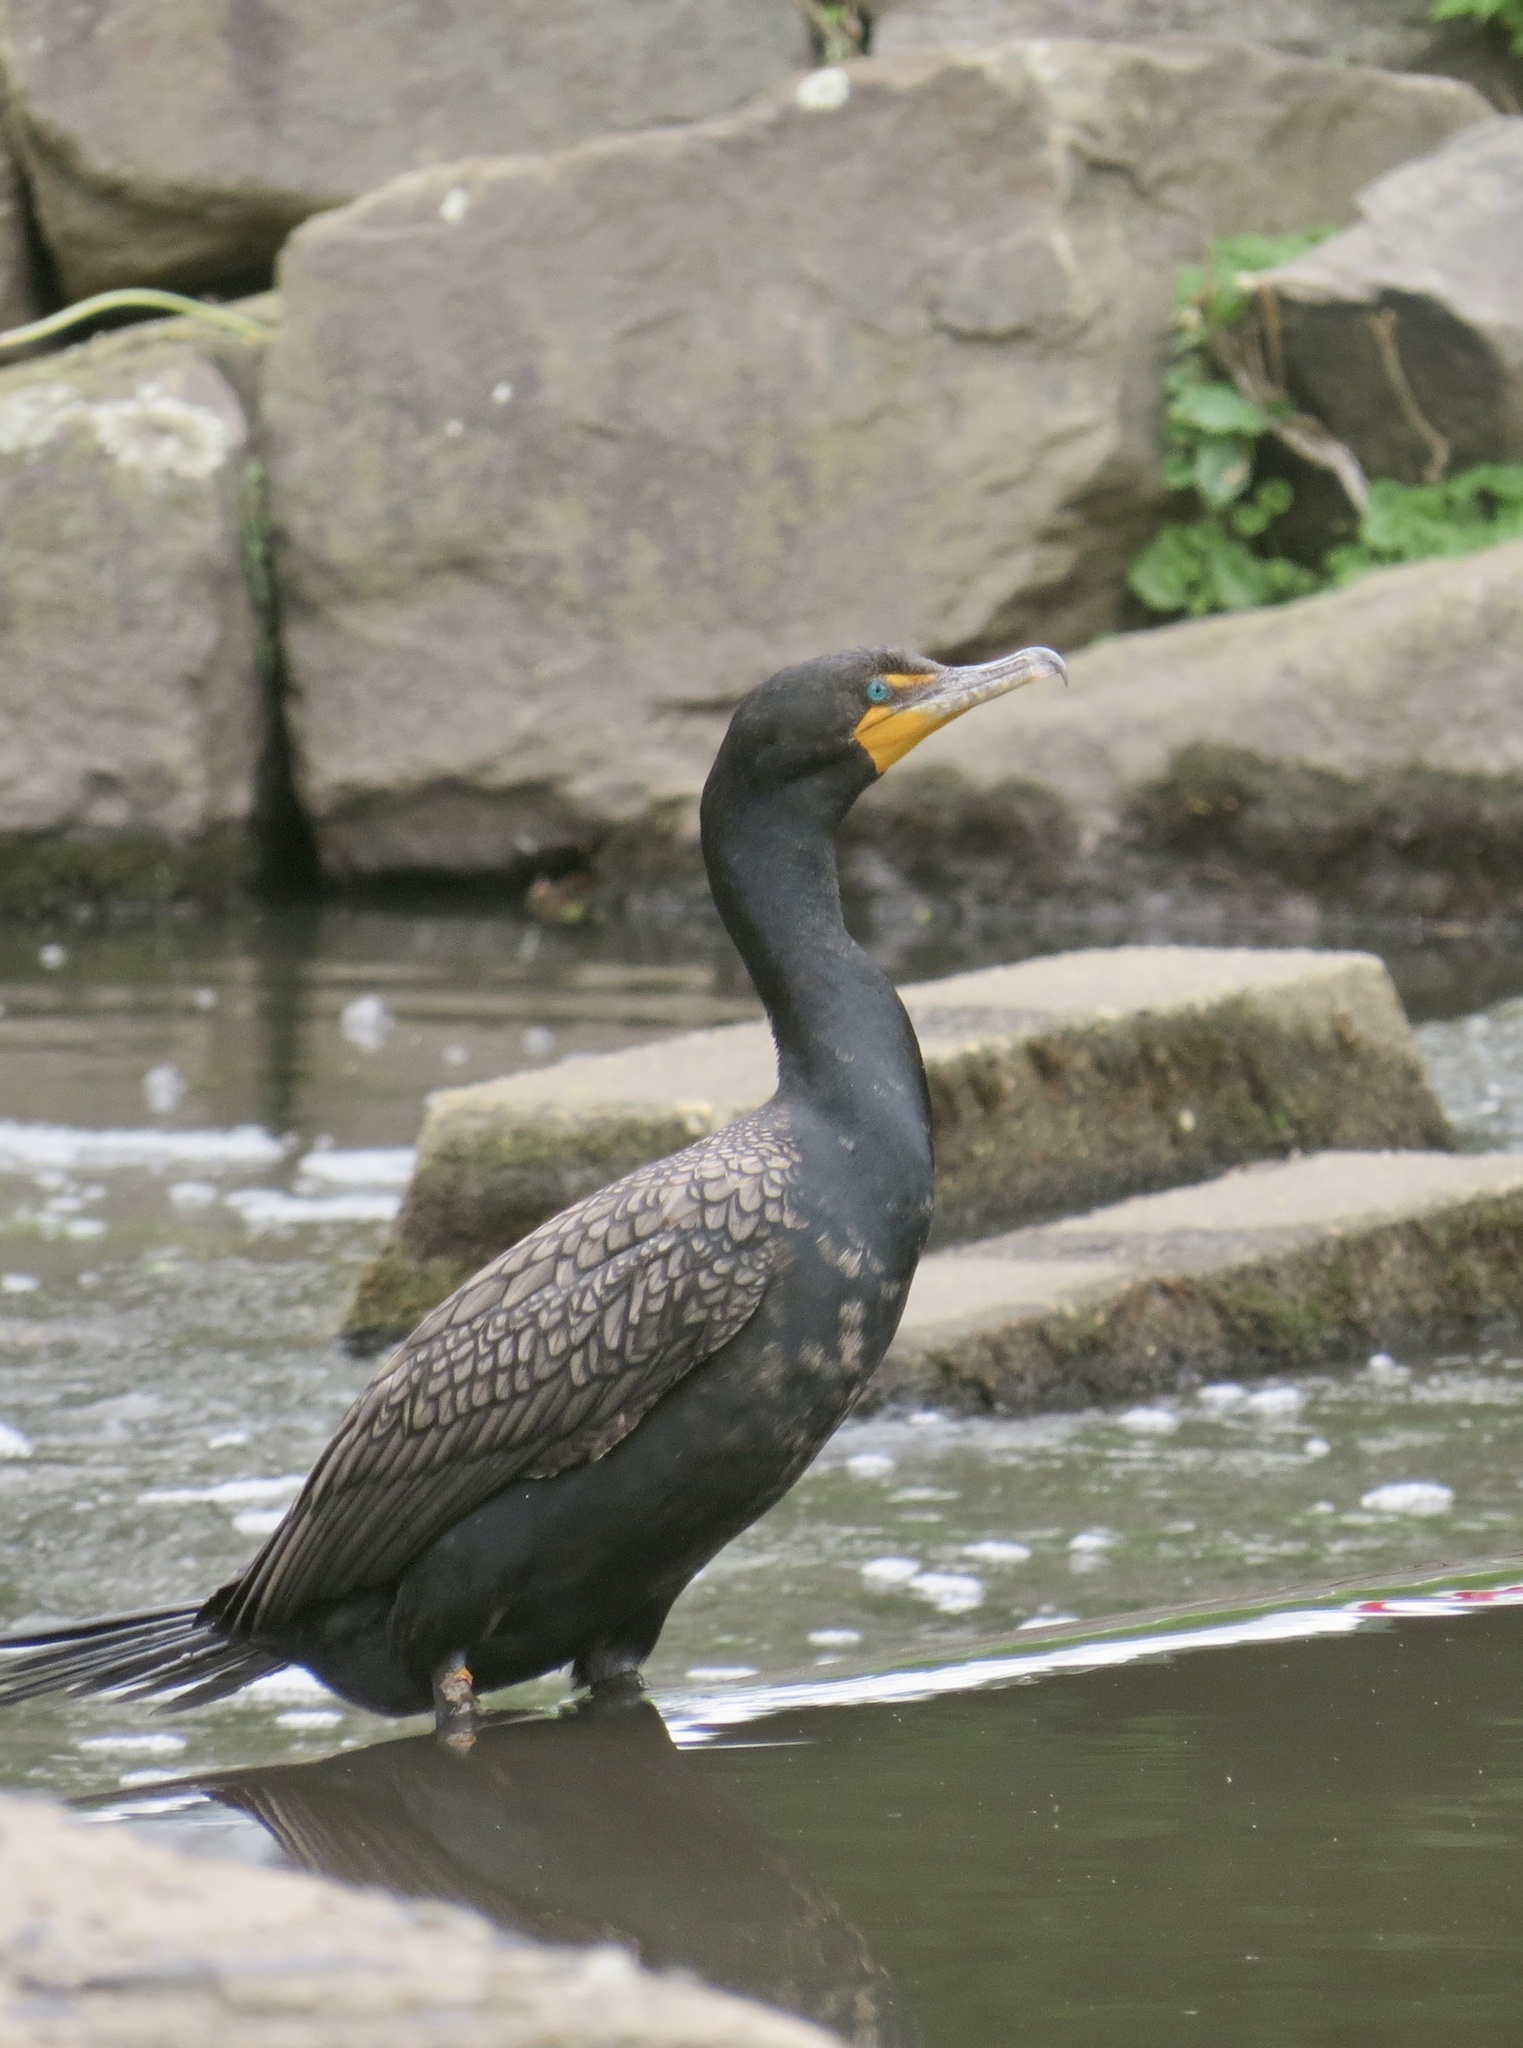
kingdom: Animalia
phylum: Chordata
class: Aves
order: Suliformes
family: Phalacrocoracidae
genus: Phalacrocorax
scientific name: Phalacrocorax auritus
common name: Double-crested cormorant
